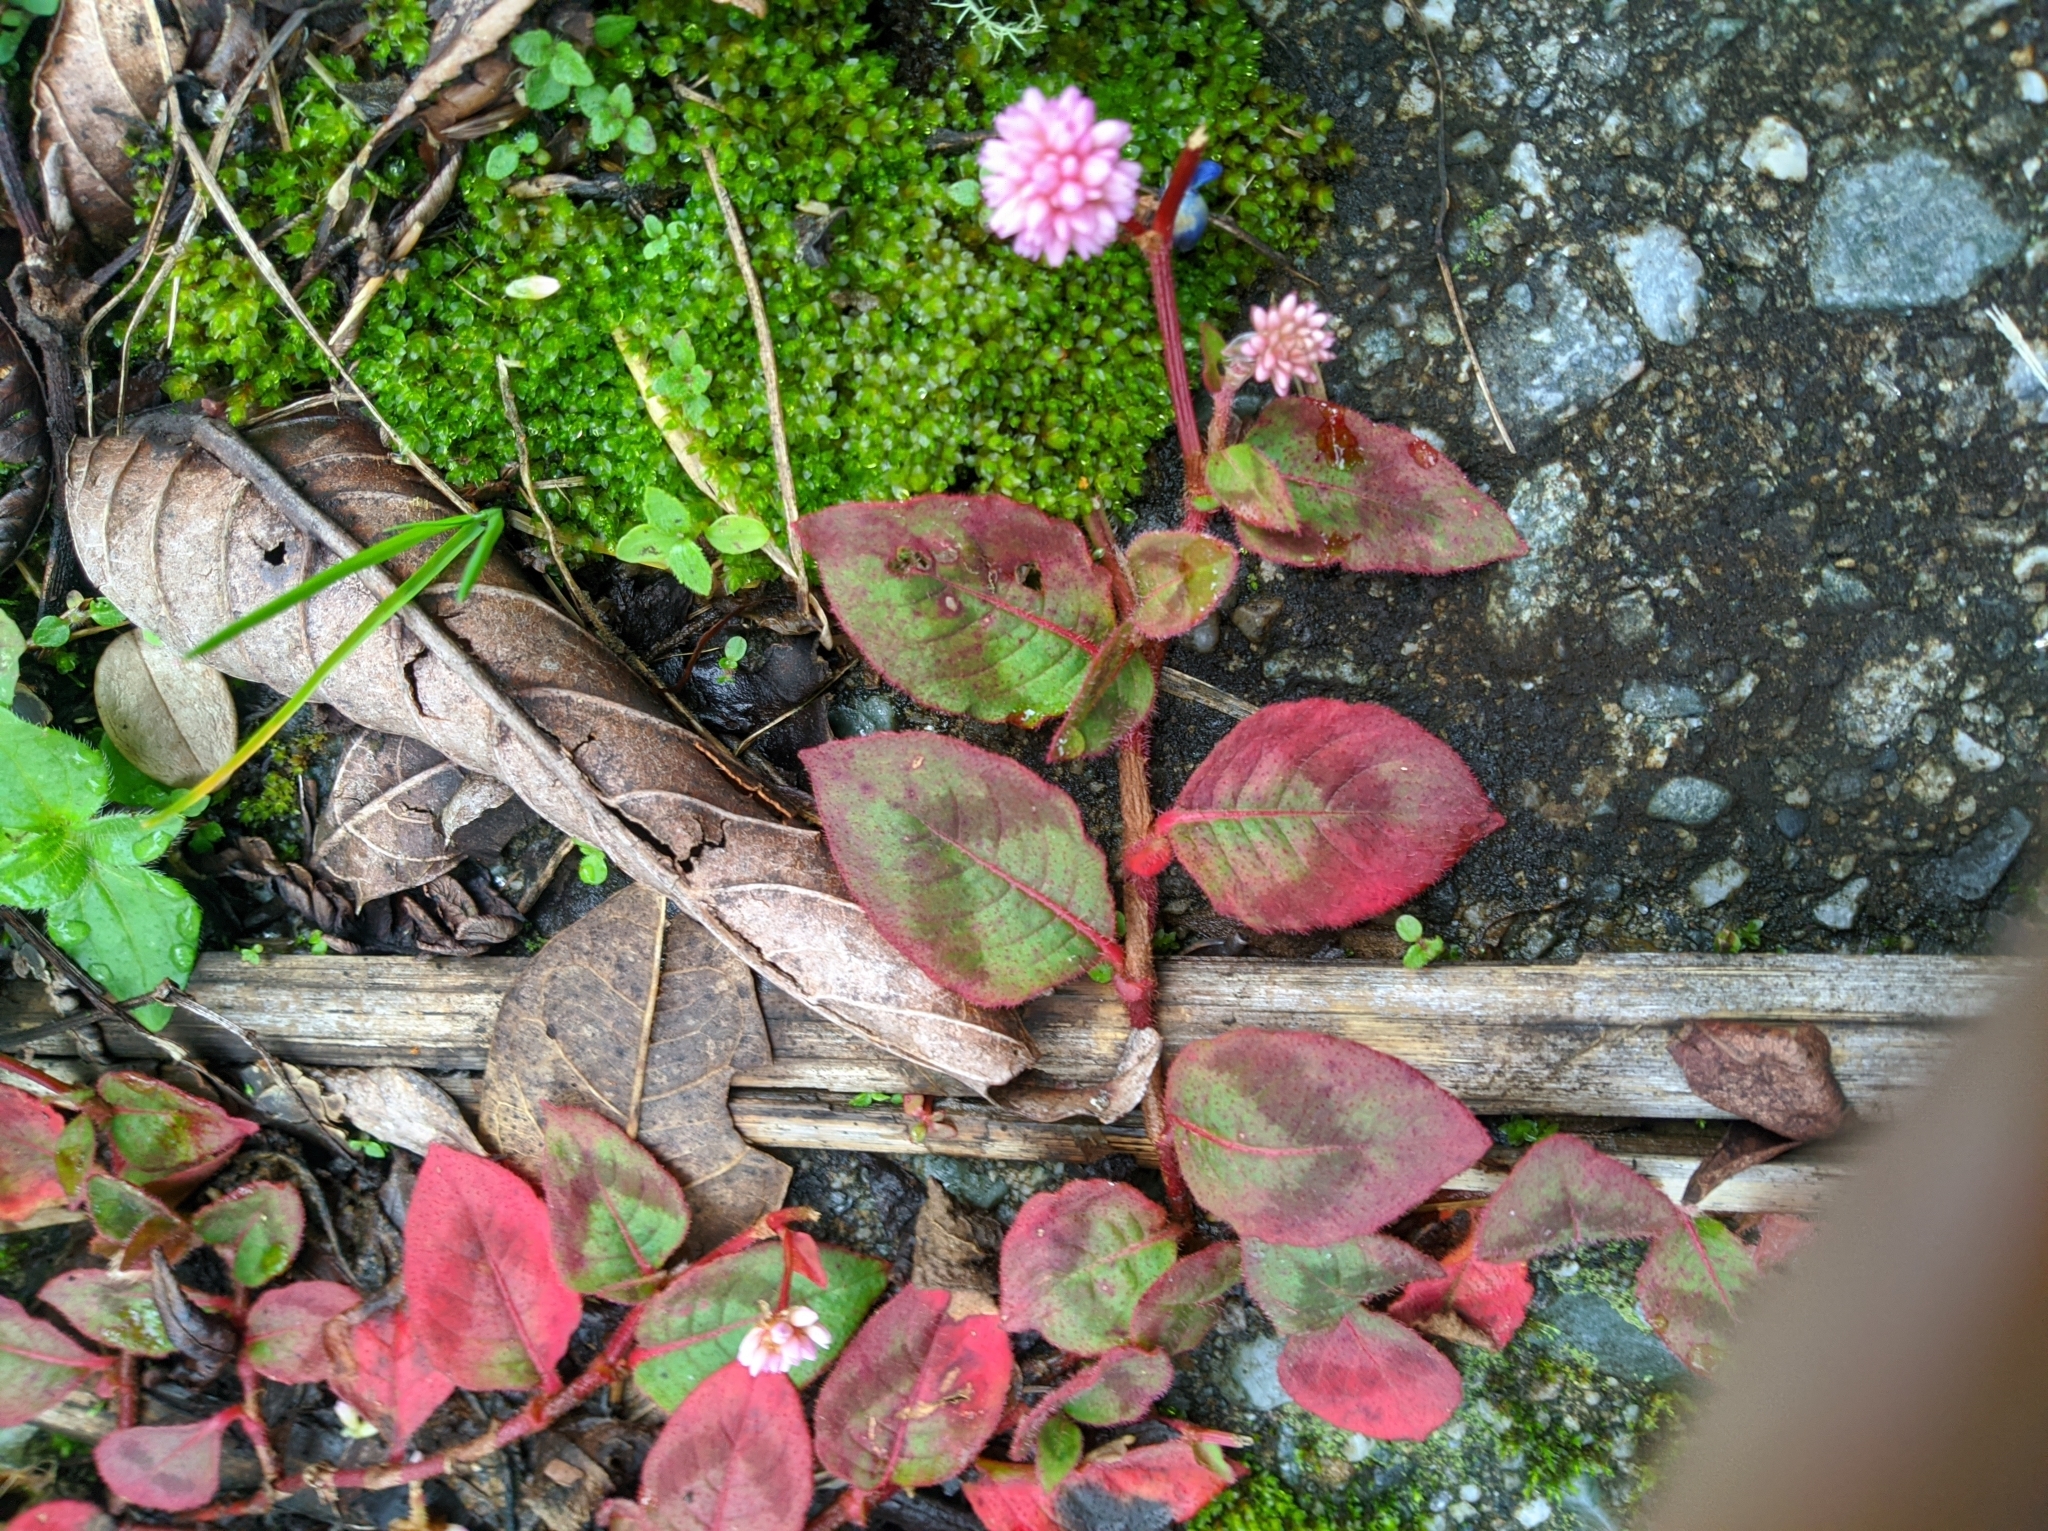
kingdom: Plantae
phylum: Tracheophyta
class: Magnoliopsida
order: Caryophyllales
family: Polygonaceae
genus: Persicaria
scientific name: Persicaria capitata
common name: Pinkhead smartweed
